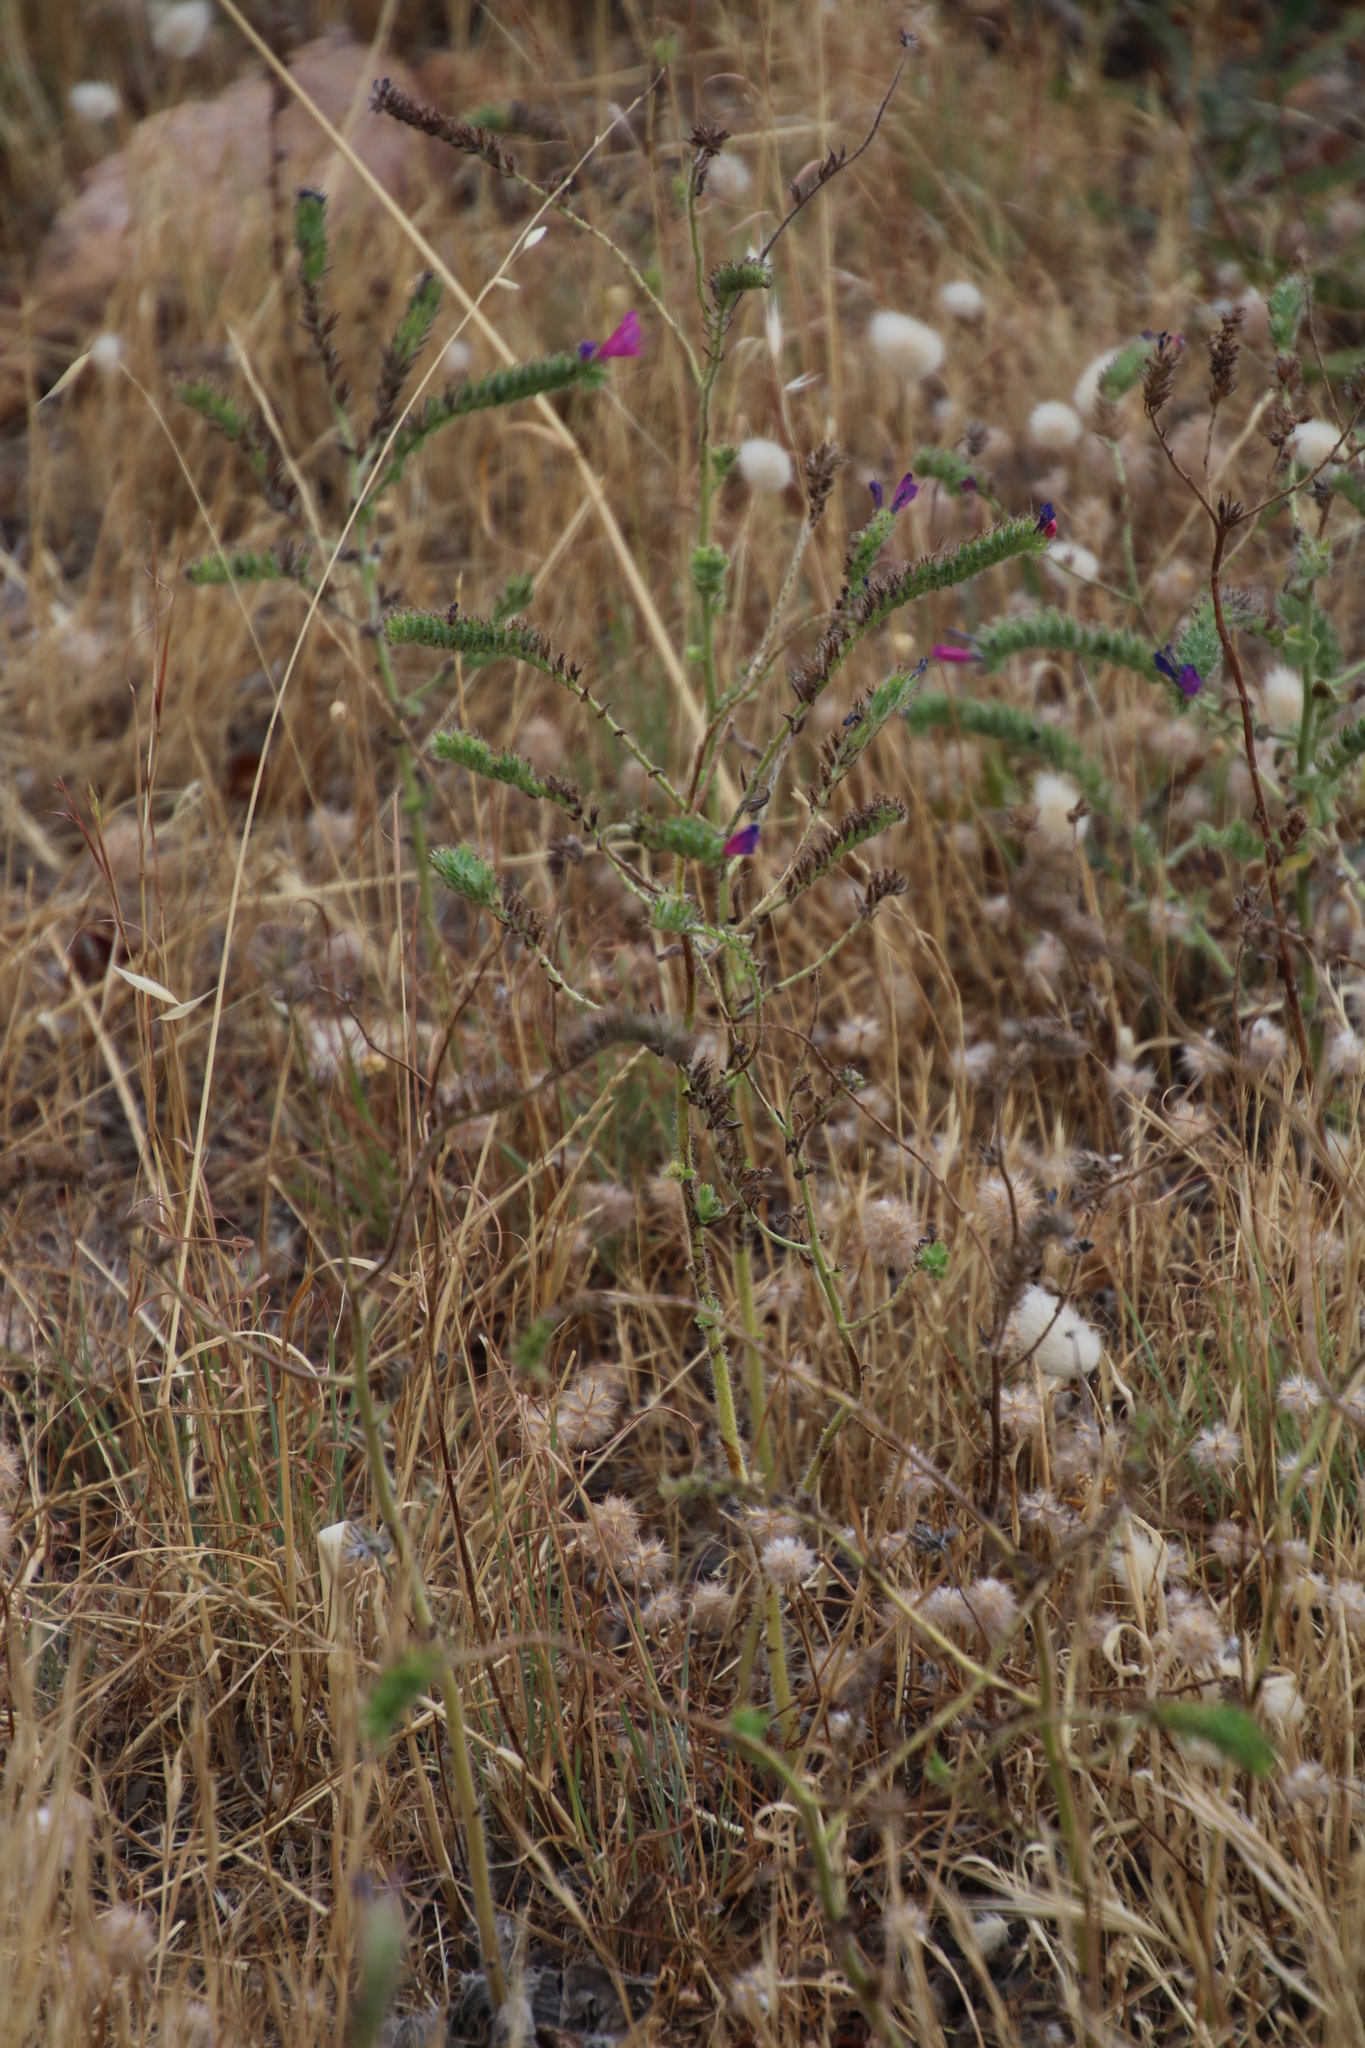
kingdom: Plantae
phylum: Tracheophyta
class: Magnoliopsida
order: Boraginales
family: Boraginaceae
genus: Echium
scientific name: Echium plantagineum
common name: Purple viper's-bugloss
